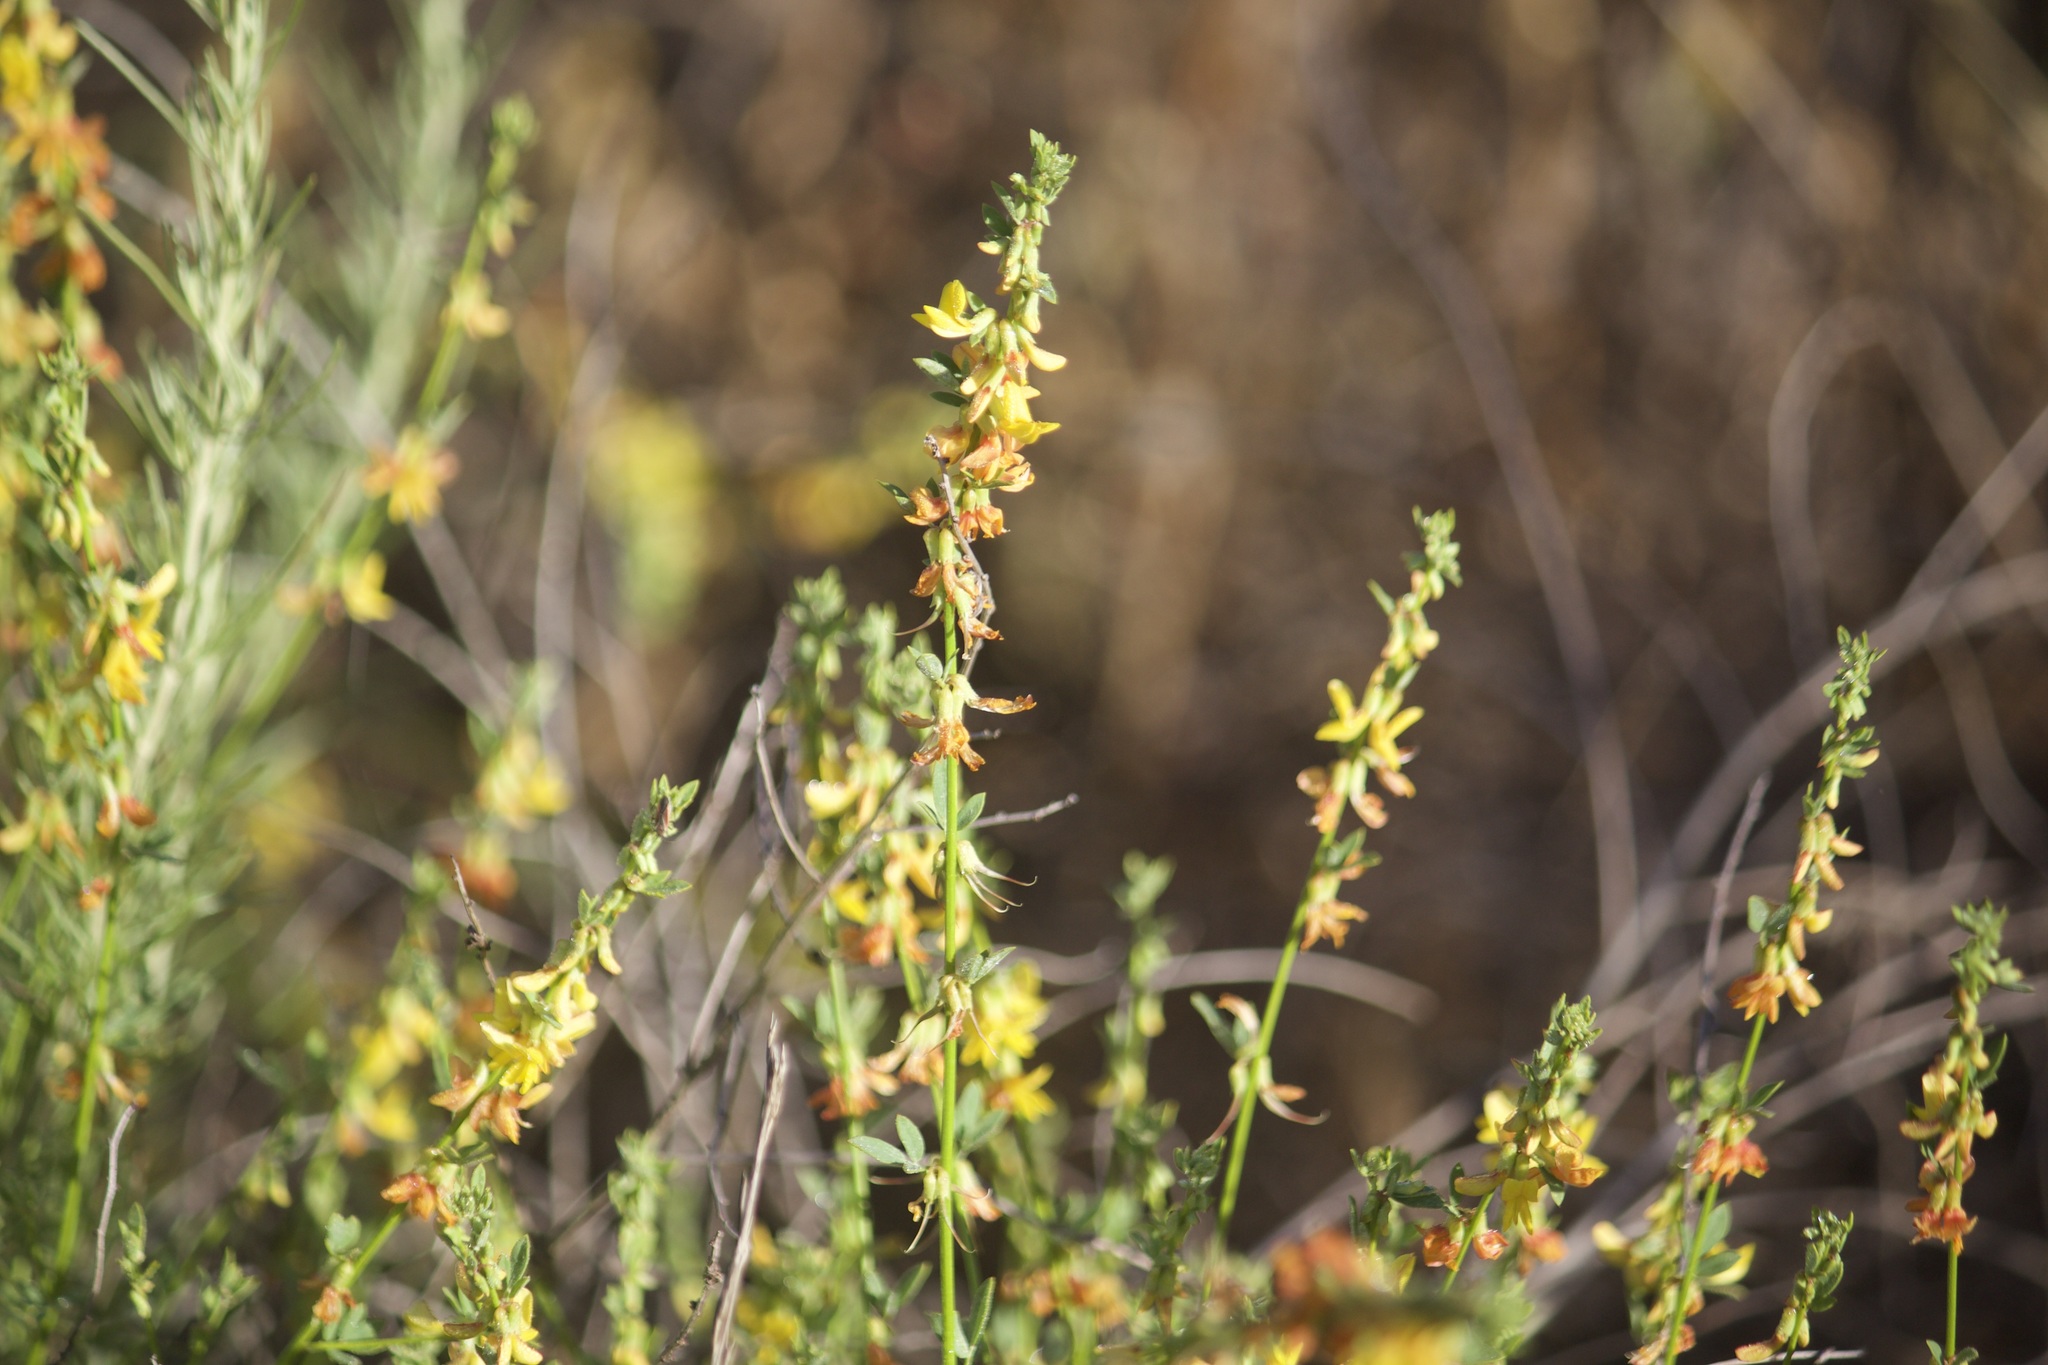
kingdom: Plantae
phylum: Tracheophyta
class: Magnoliopsida
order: Fabales
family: Fabaceae
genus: Acmispon
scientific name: Acmispon glaber
